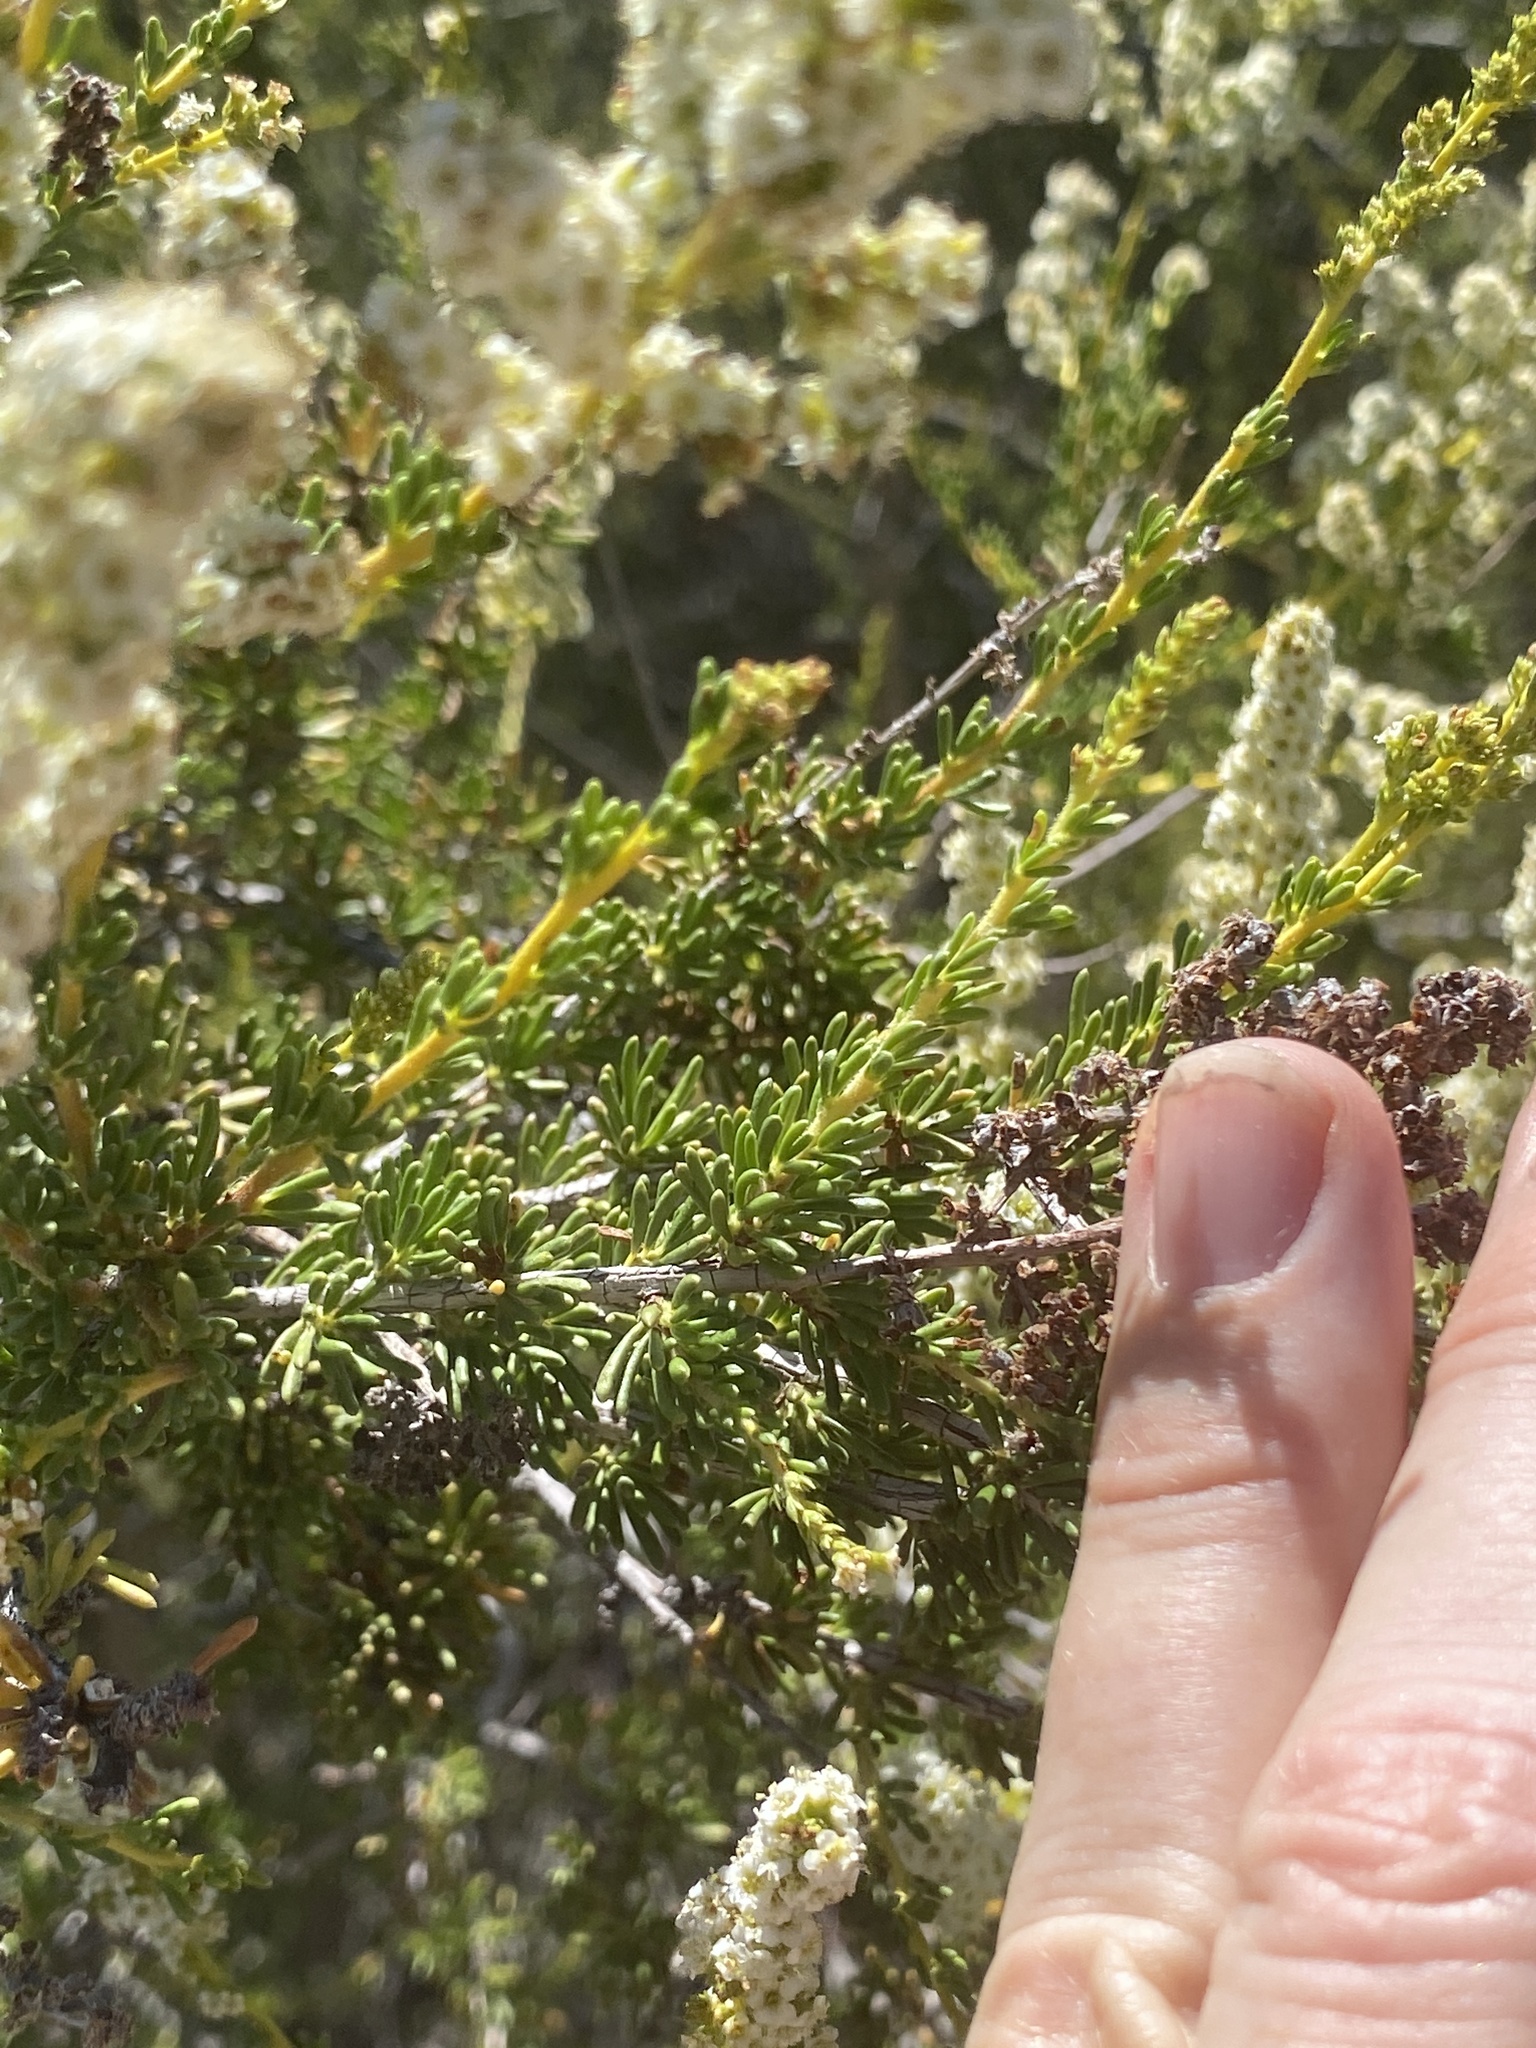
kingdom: Plantae
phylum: Tracheophyta
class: Magnoliopsida
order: Rosales
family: Rosaceae
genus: Adenostoma
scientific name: Adenostoma fasciculatum
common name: Chamise
